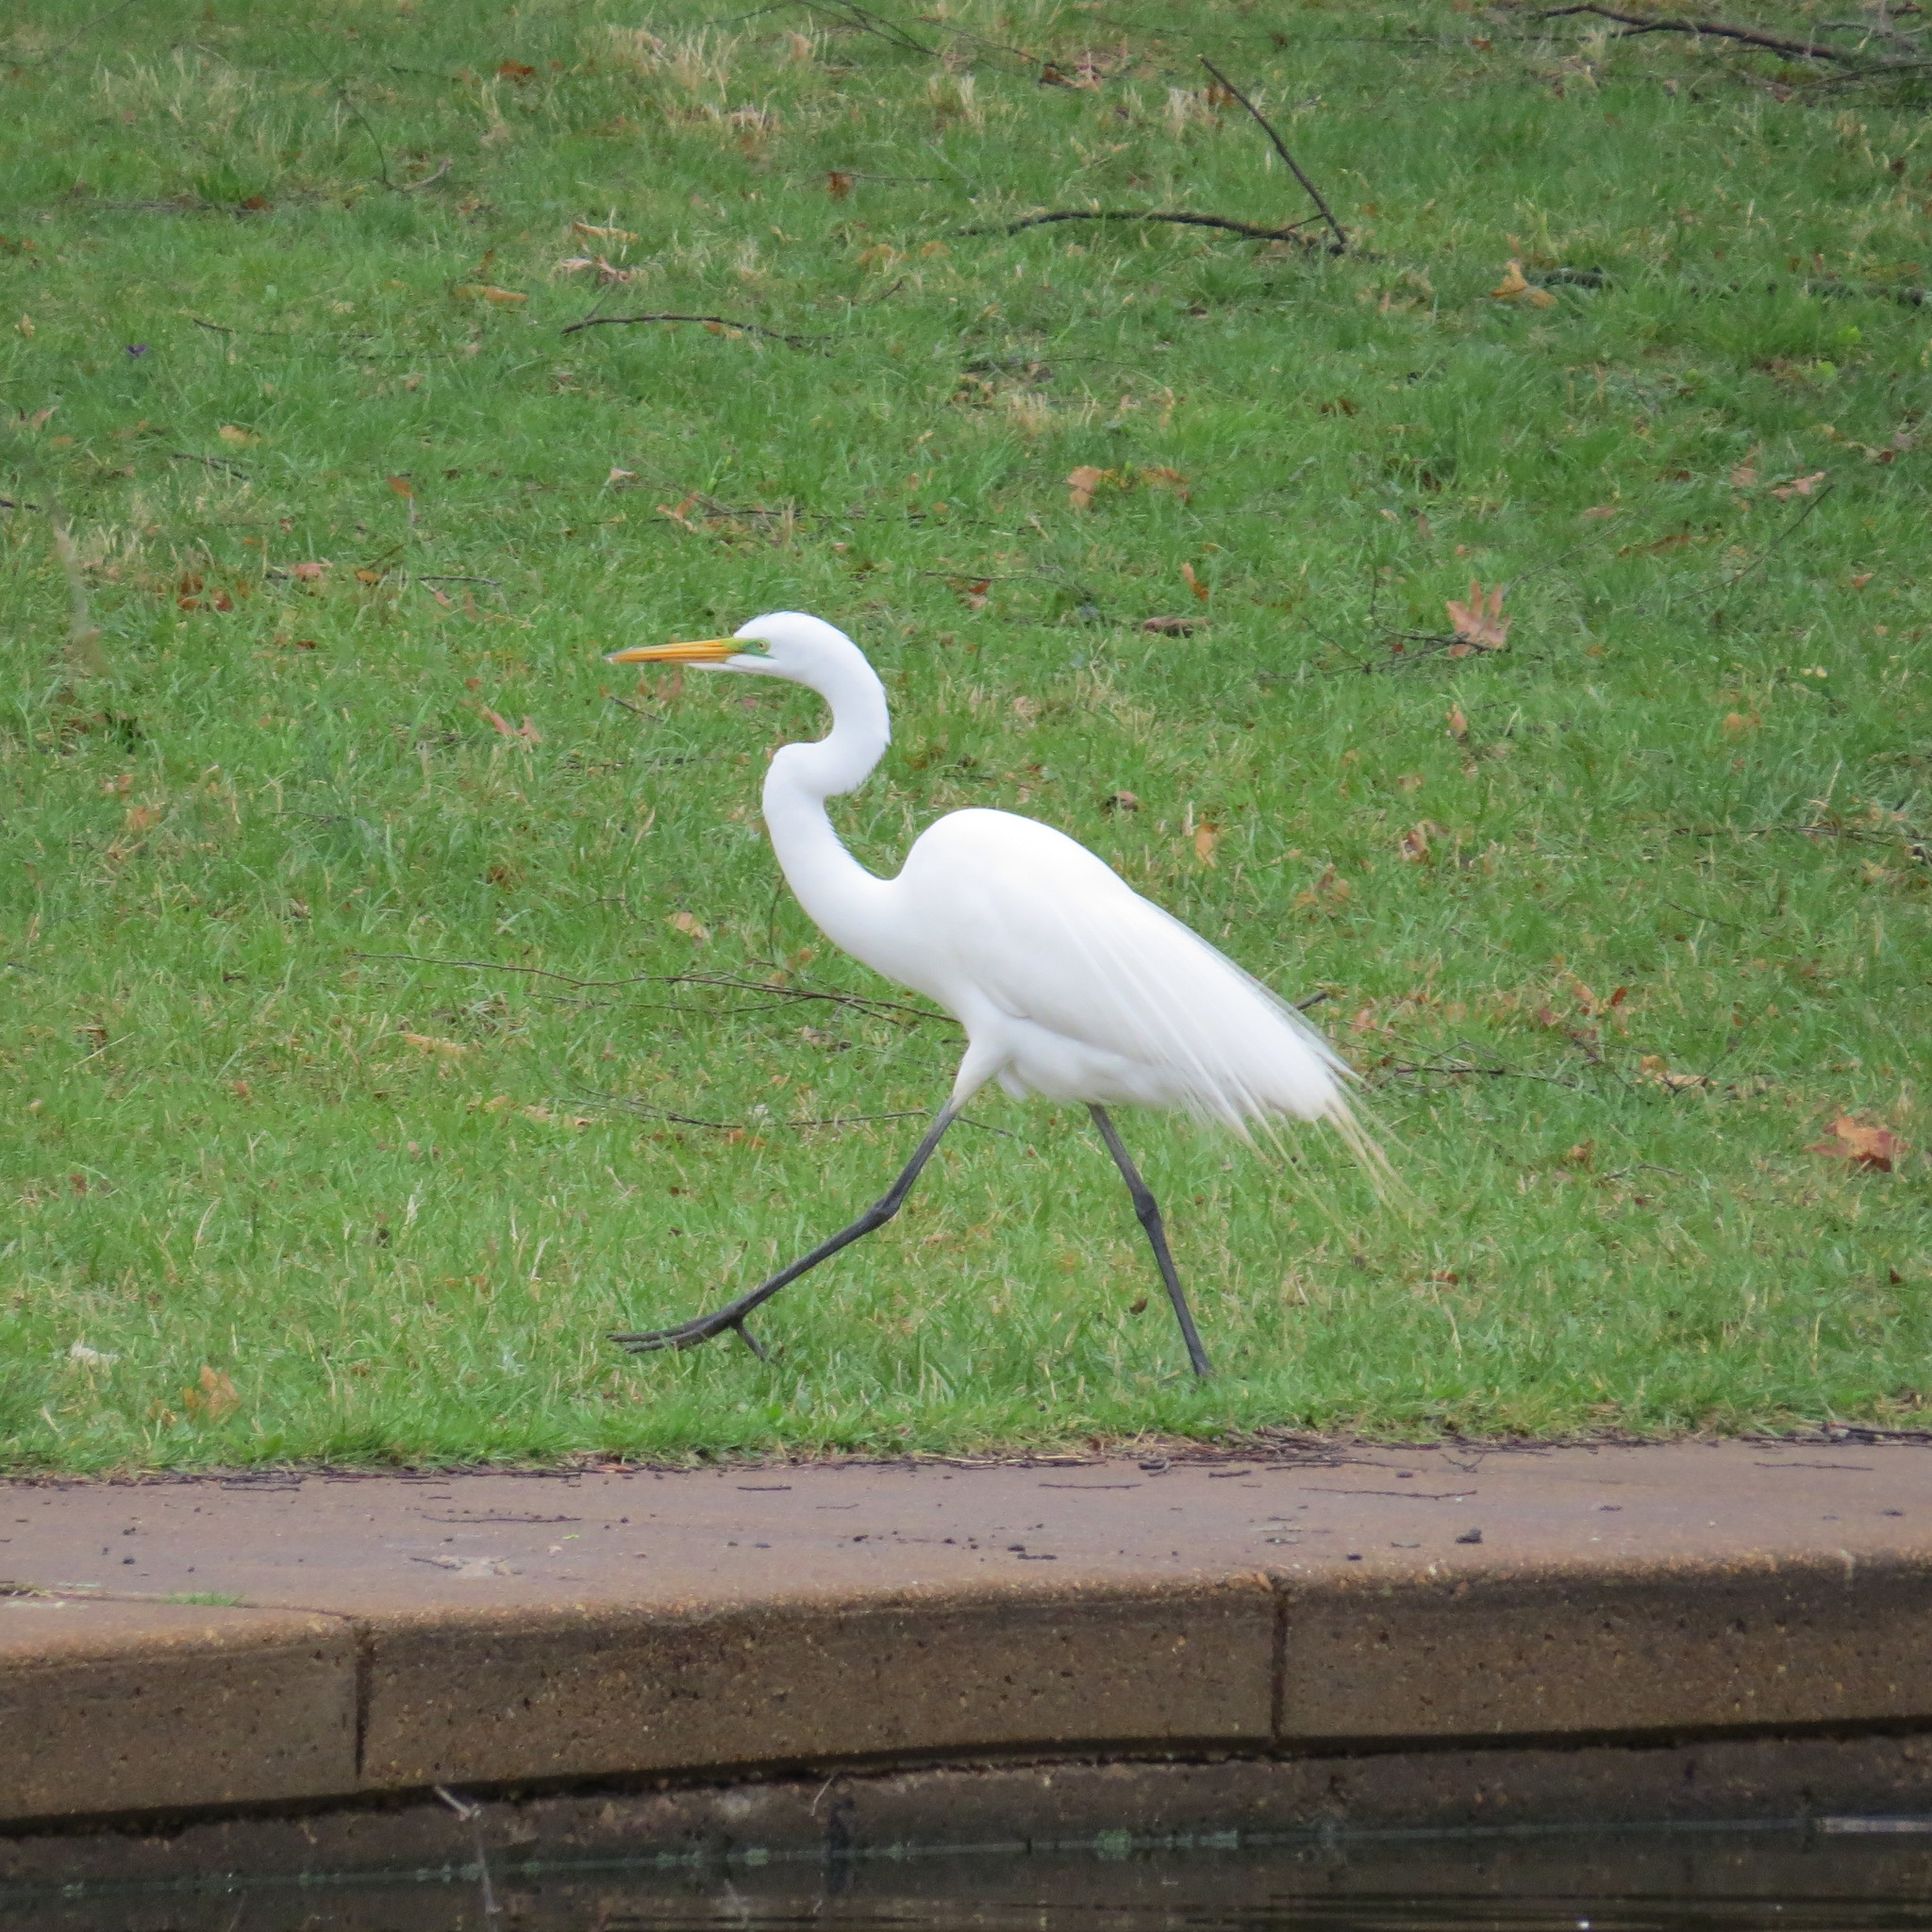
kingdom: Animalia
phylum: Chordata
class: Aves
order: Pelecaniformes
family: Ardeidae
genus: Ardea
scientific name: Ardea alba
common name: Great egret
